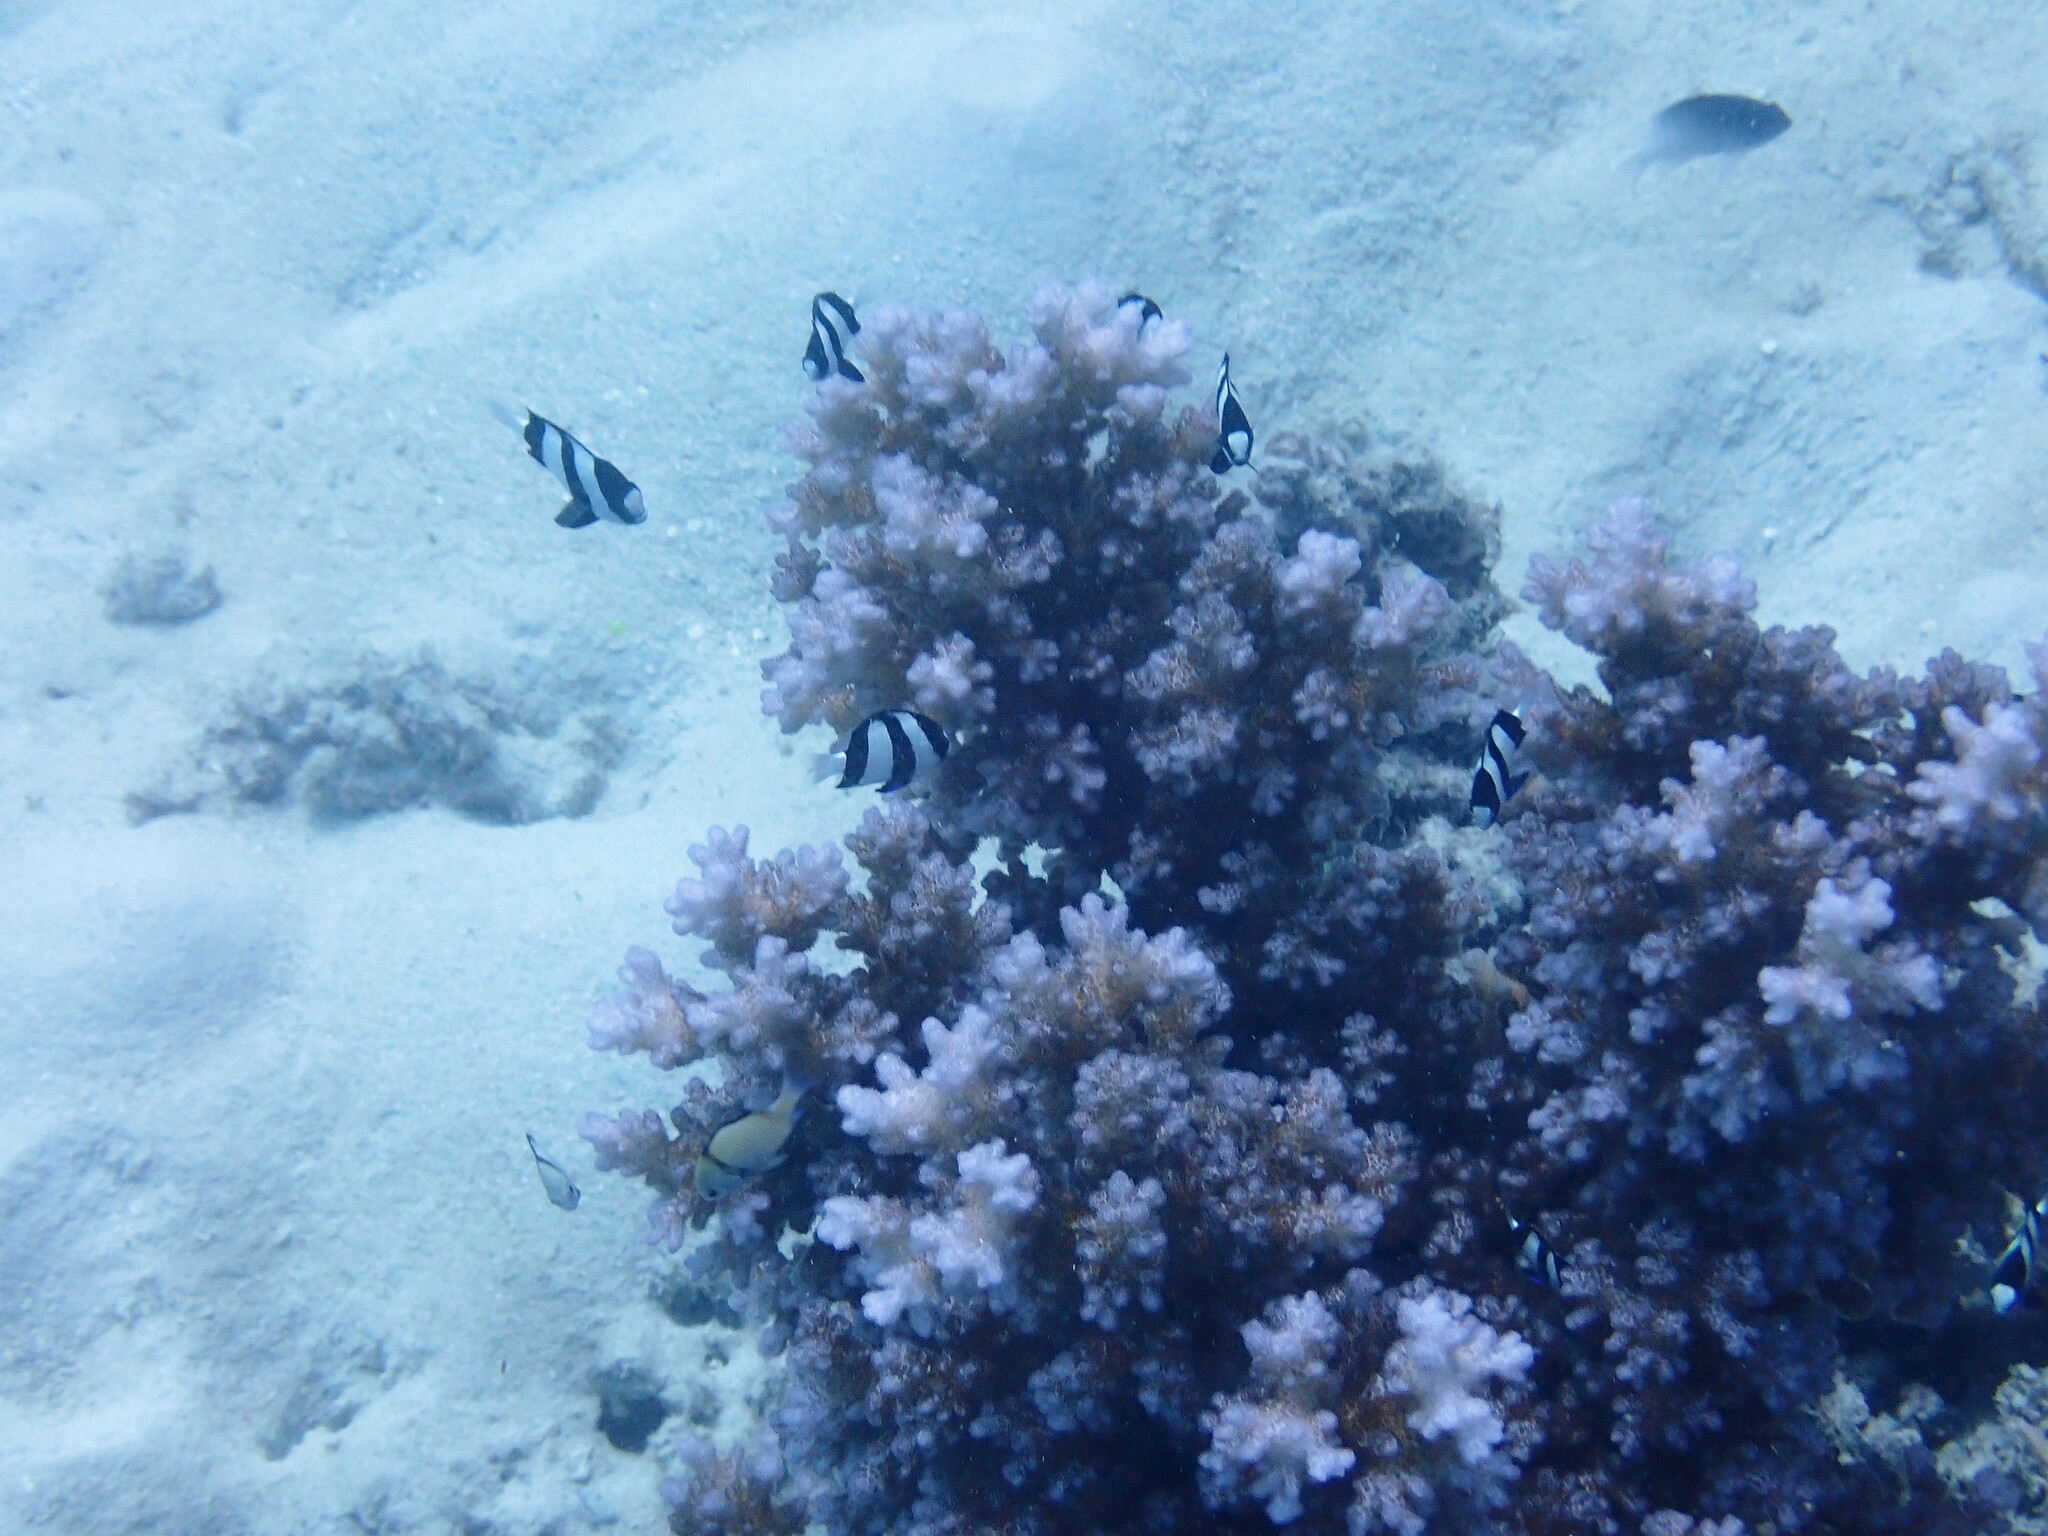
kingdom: Animalia
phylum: Chordata
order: Perciformes
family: Pomacentridae
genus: Dascyllus
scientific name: Dascyllus aruanus
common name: Humbug dascyllus
